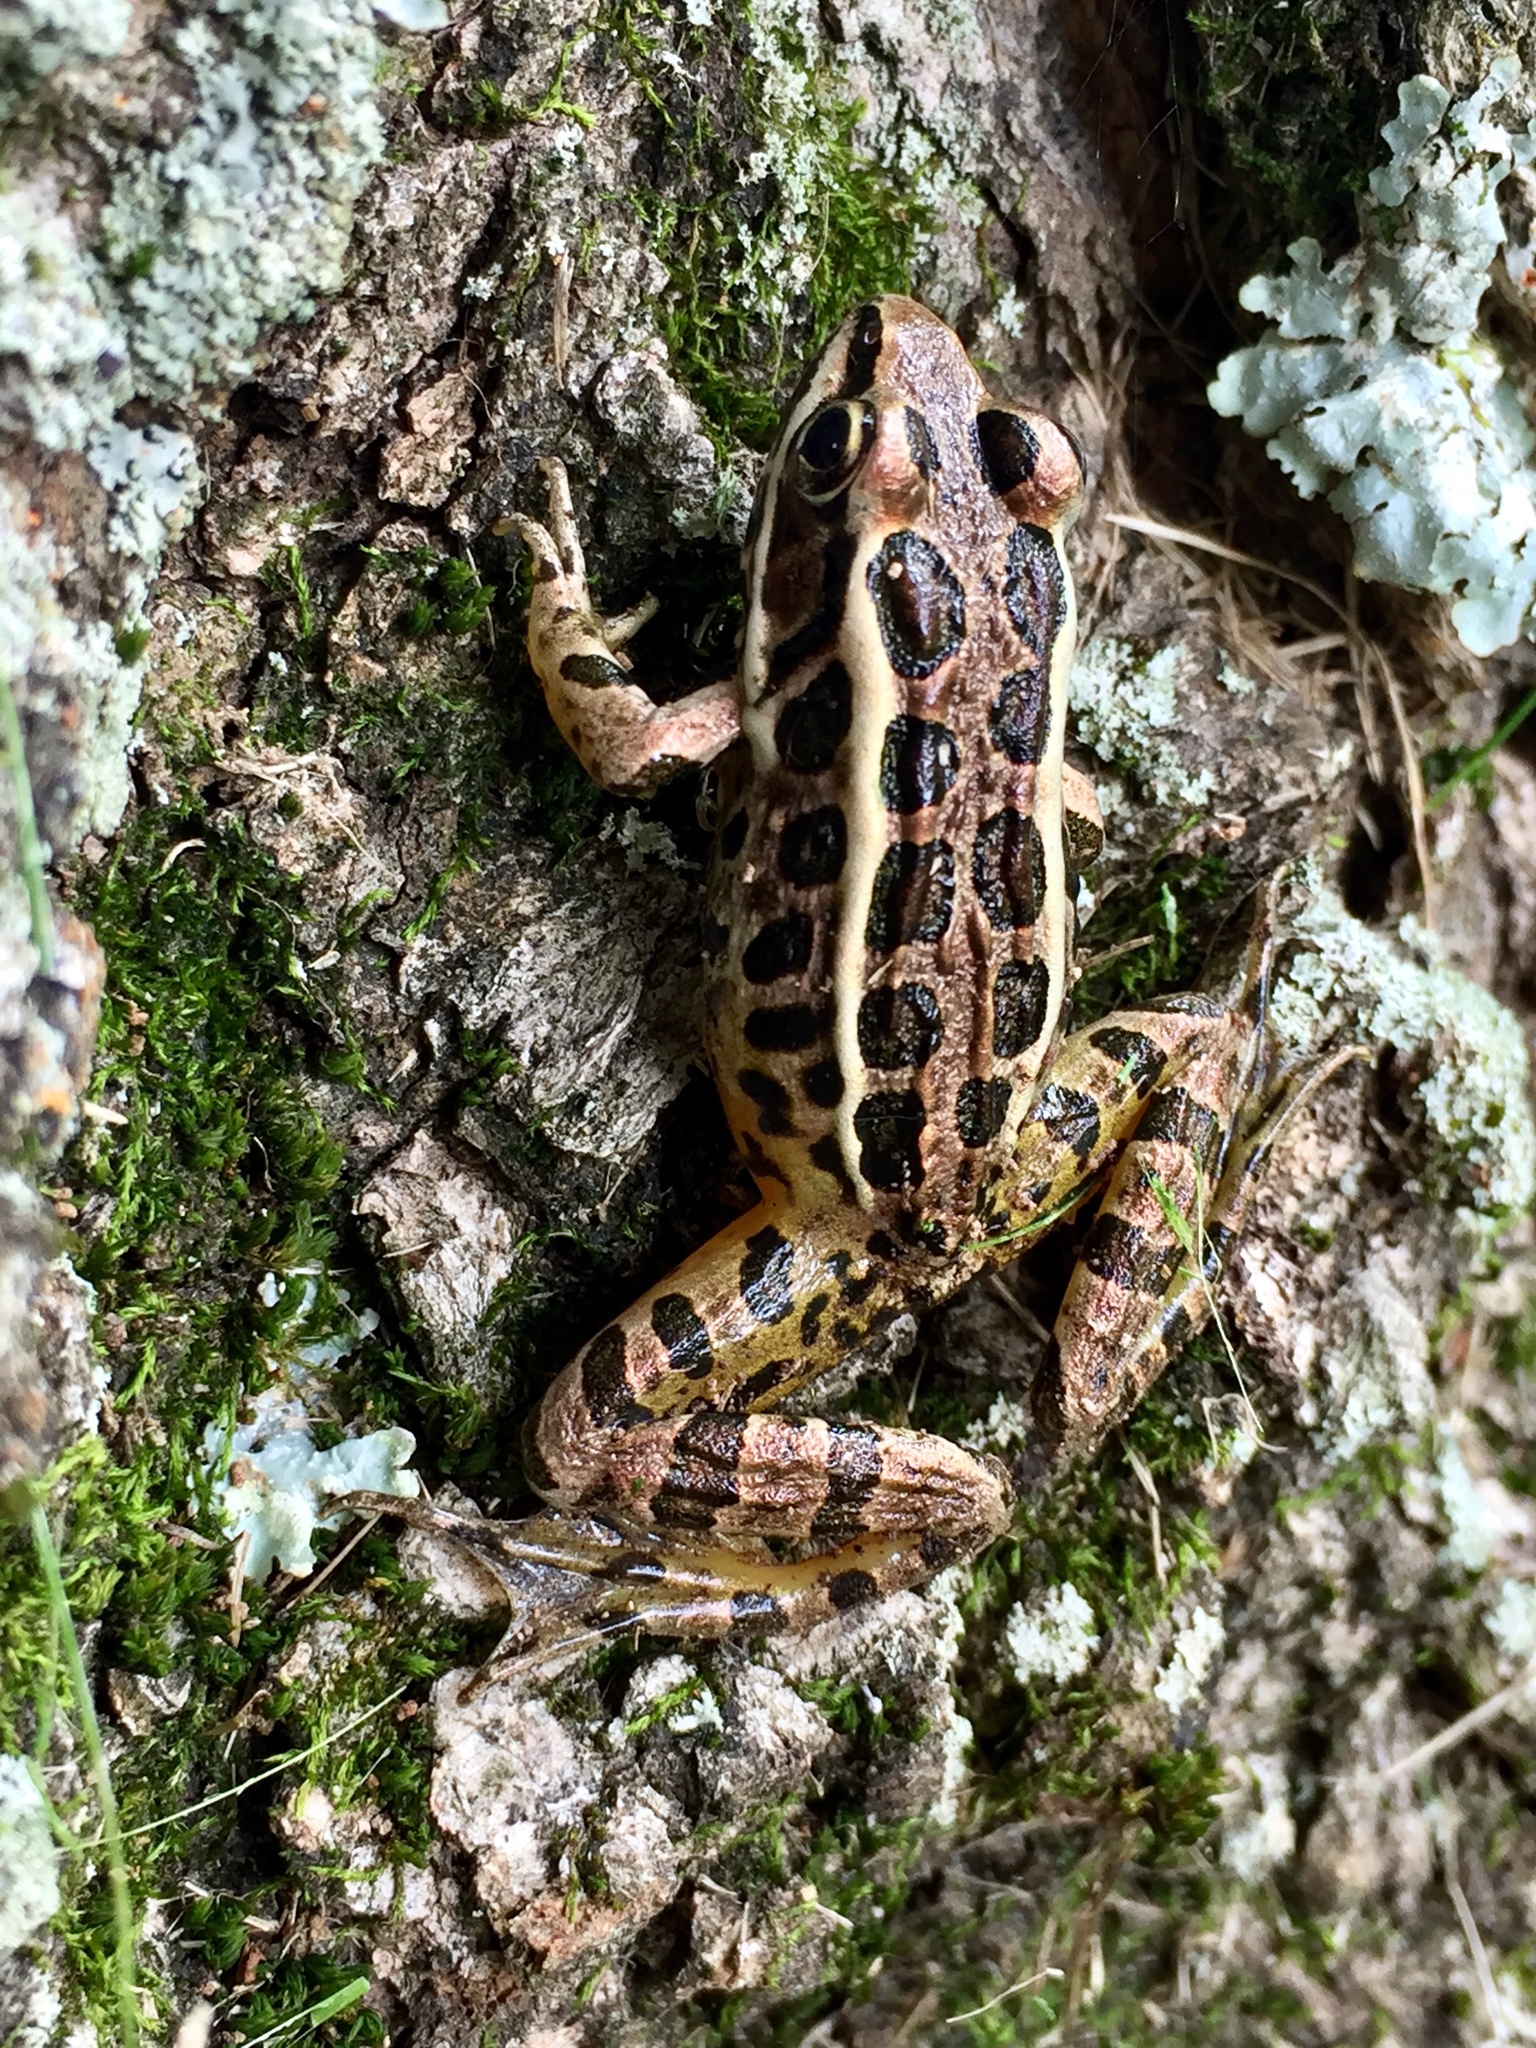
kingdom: Animalia
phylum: Chordata
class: Amphibia
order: Anura
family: Ranidae
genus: Lithobates
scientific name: Lithobates palustris
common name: Pickerel frog
